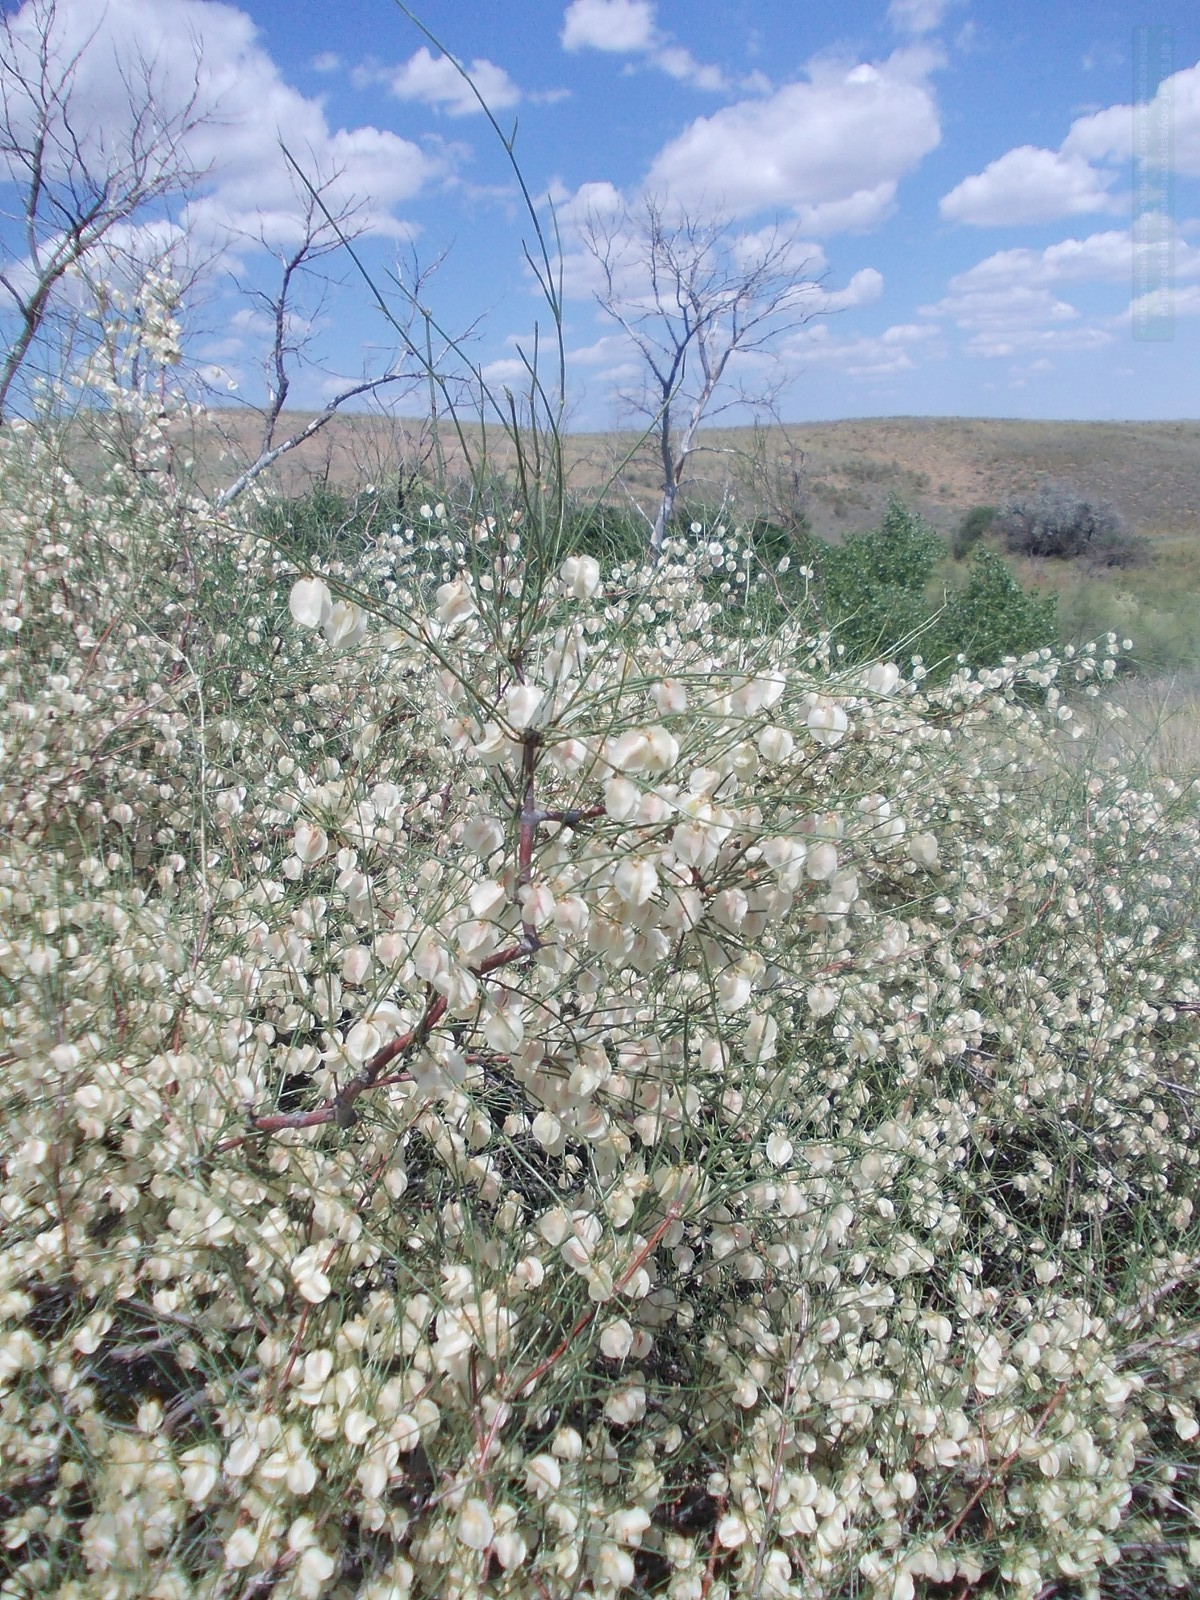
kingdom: Plantae
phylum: Tracheophyta
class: Magnoliopsida
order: Caryophyllales
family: Polygonaceae
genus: Calligonum
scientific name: Calligonum aphyllum
